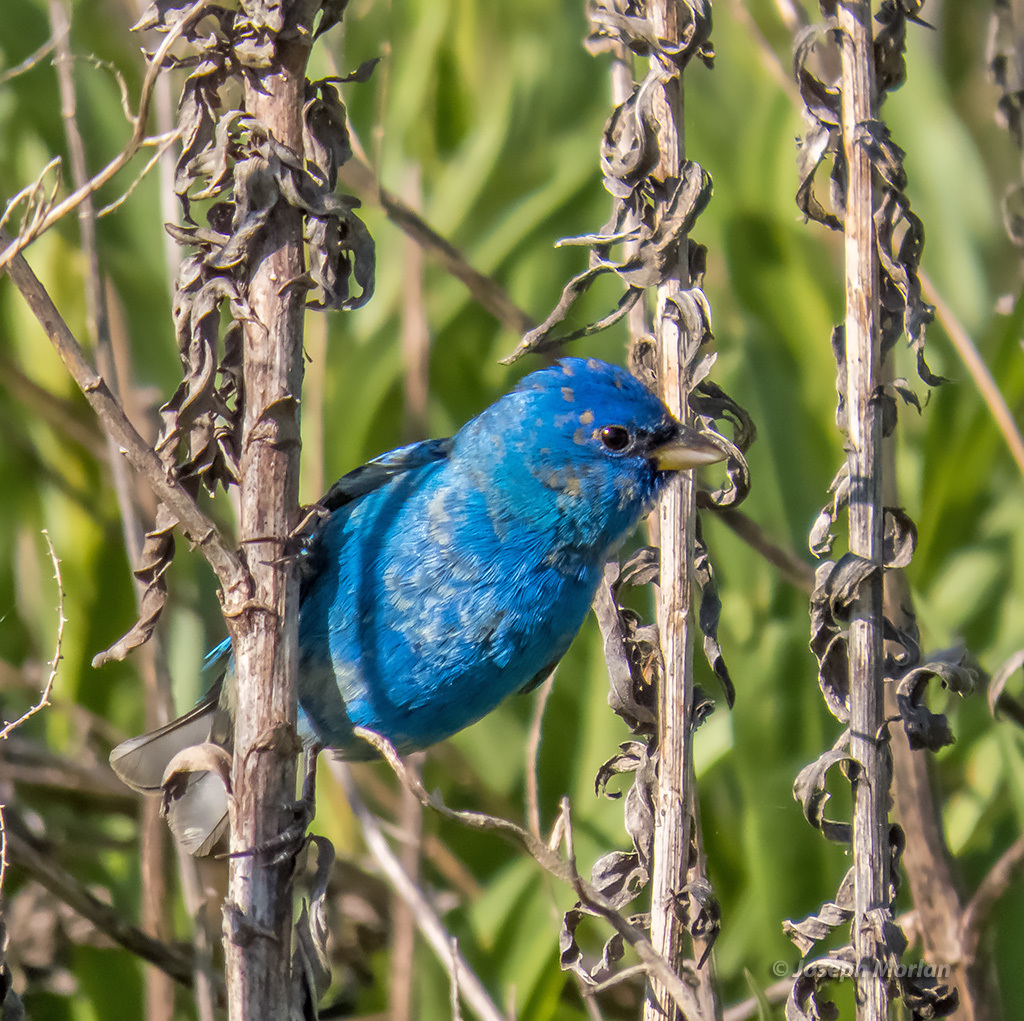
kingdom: Animalia
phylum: Chordata
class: Aves
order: Passeriformes
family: Cardinalidae
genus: Passerina
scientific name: Passerina cyanea
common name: Indigo bunting
